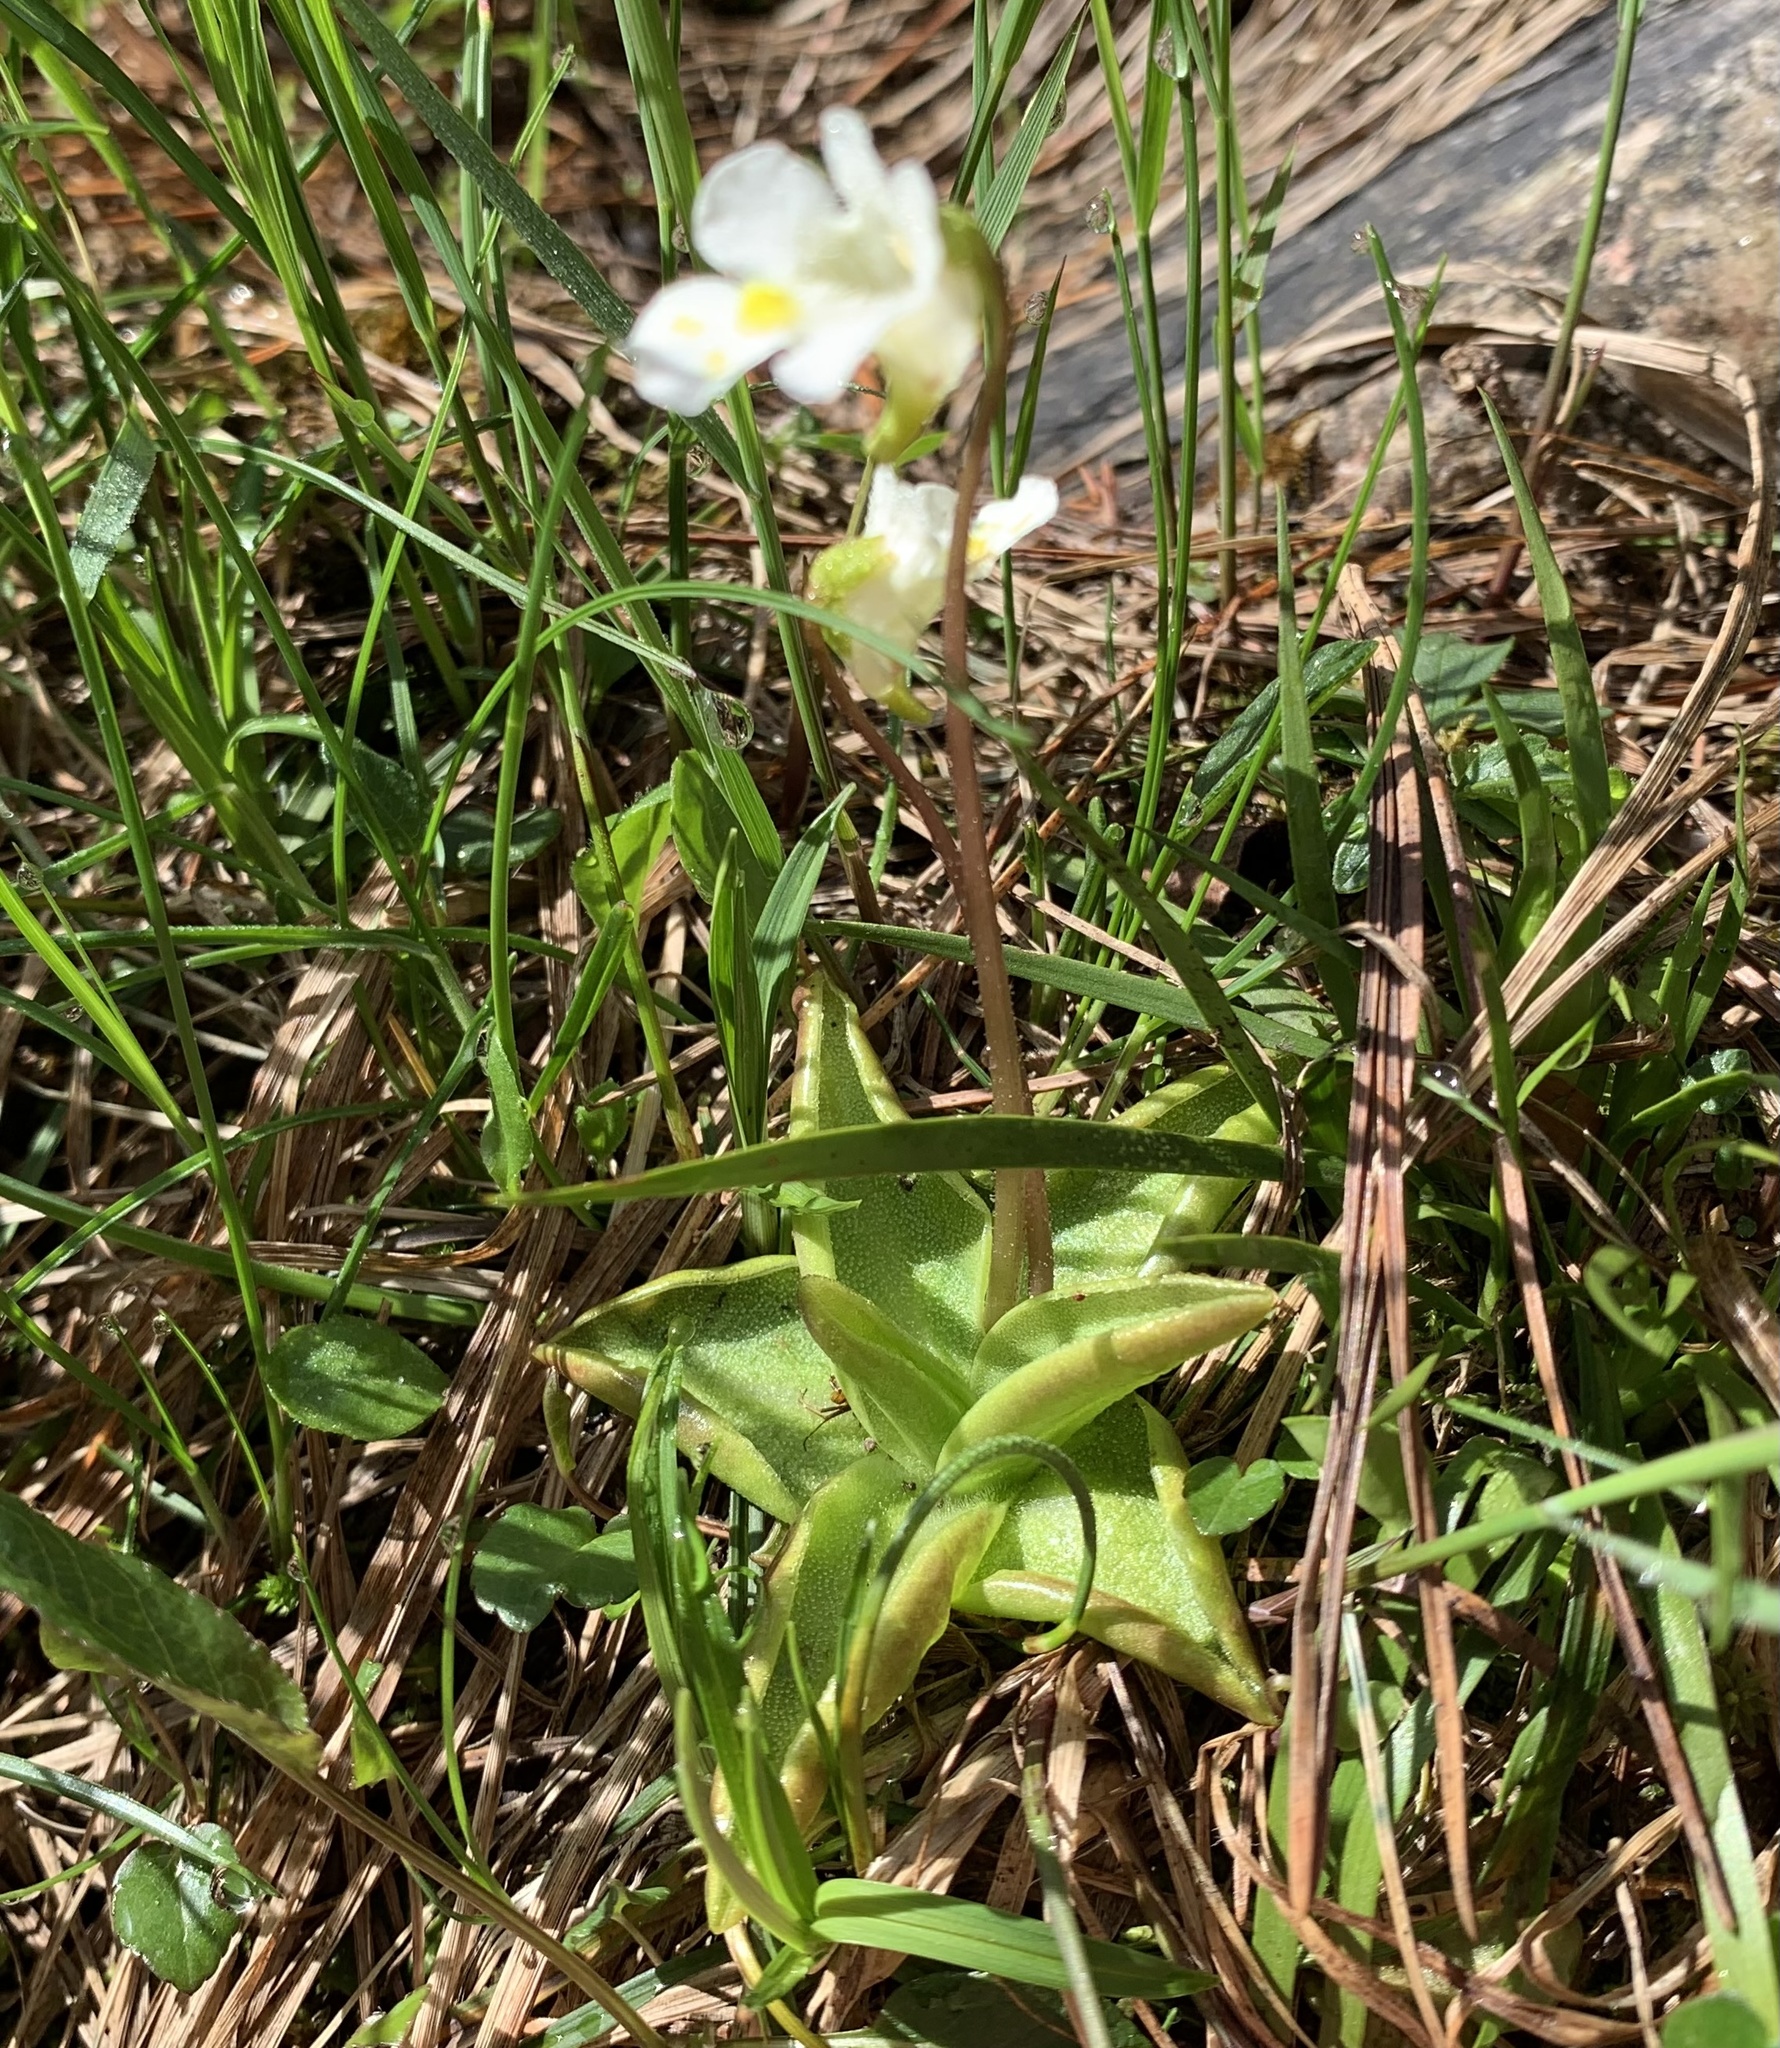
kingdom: Plantae
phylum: Tracheophyta
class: Magnoliopsida
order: Lamiales
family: Lentibulariaceae
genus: Pinguicula
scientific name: Pinguicula alpina
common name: Alpine butterwort
